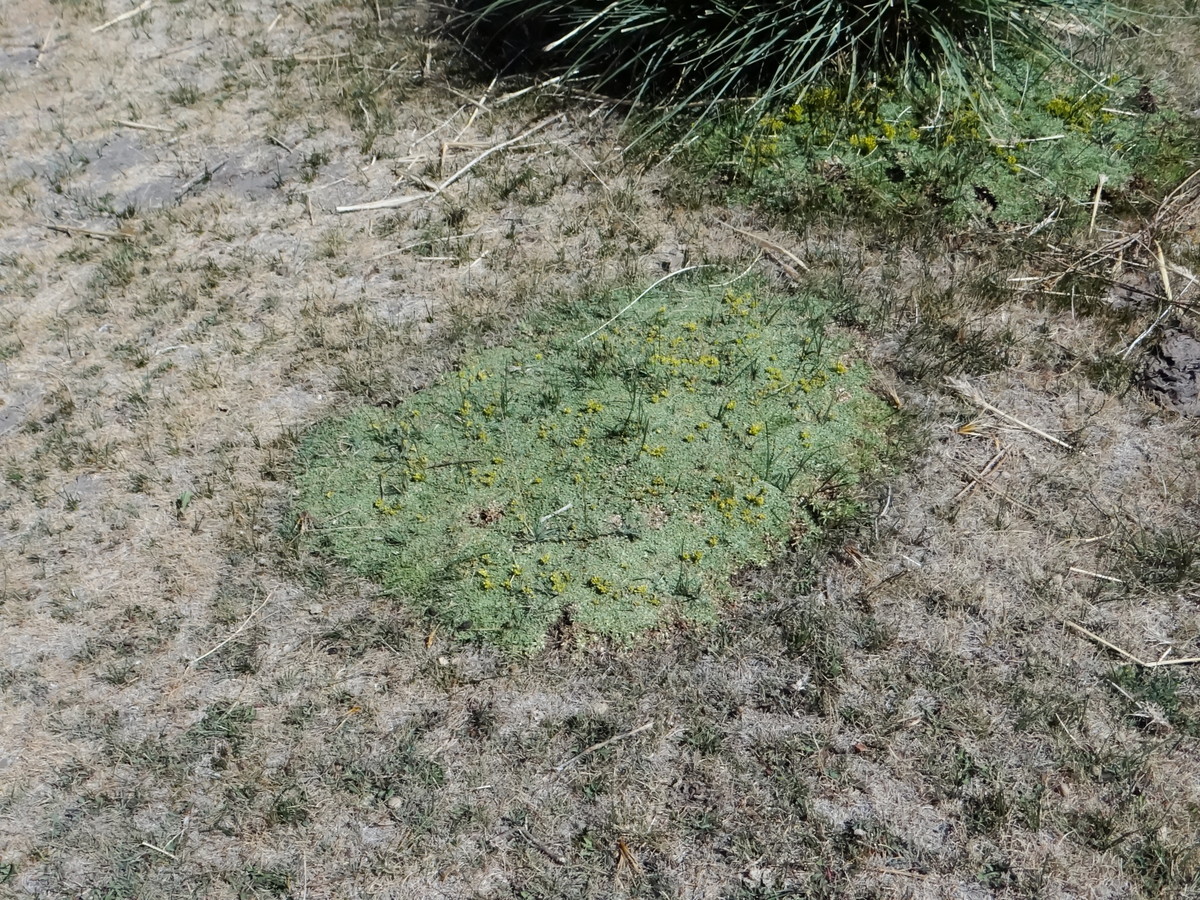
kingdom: Plantae
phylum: Tracheophyta
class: Magnoliopsida
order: Apiales
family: Apiaceae
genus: Azorella
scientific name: Azorella trifurcata
